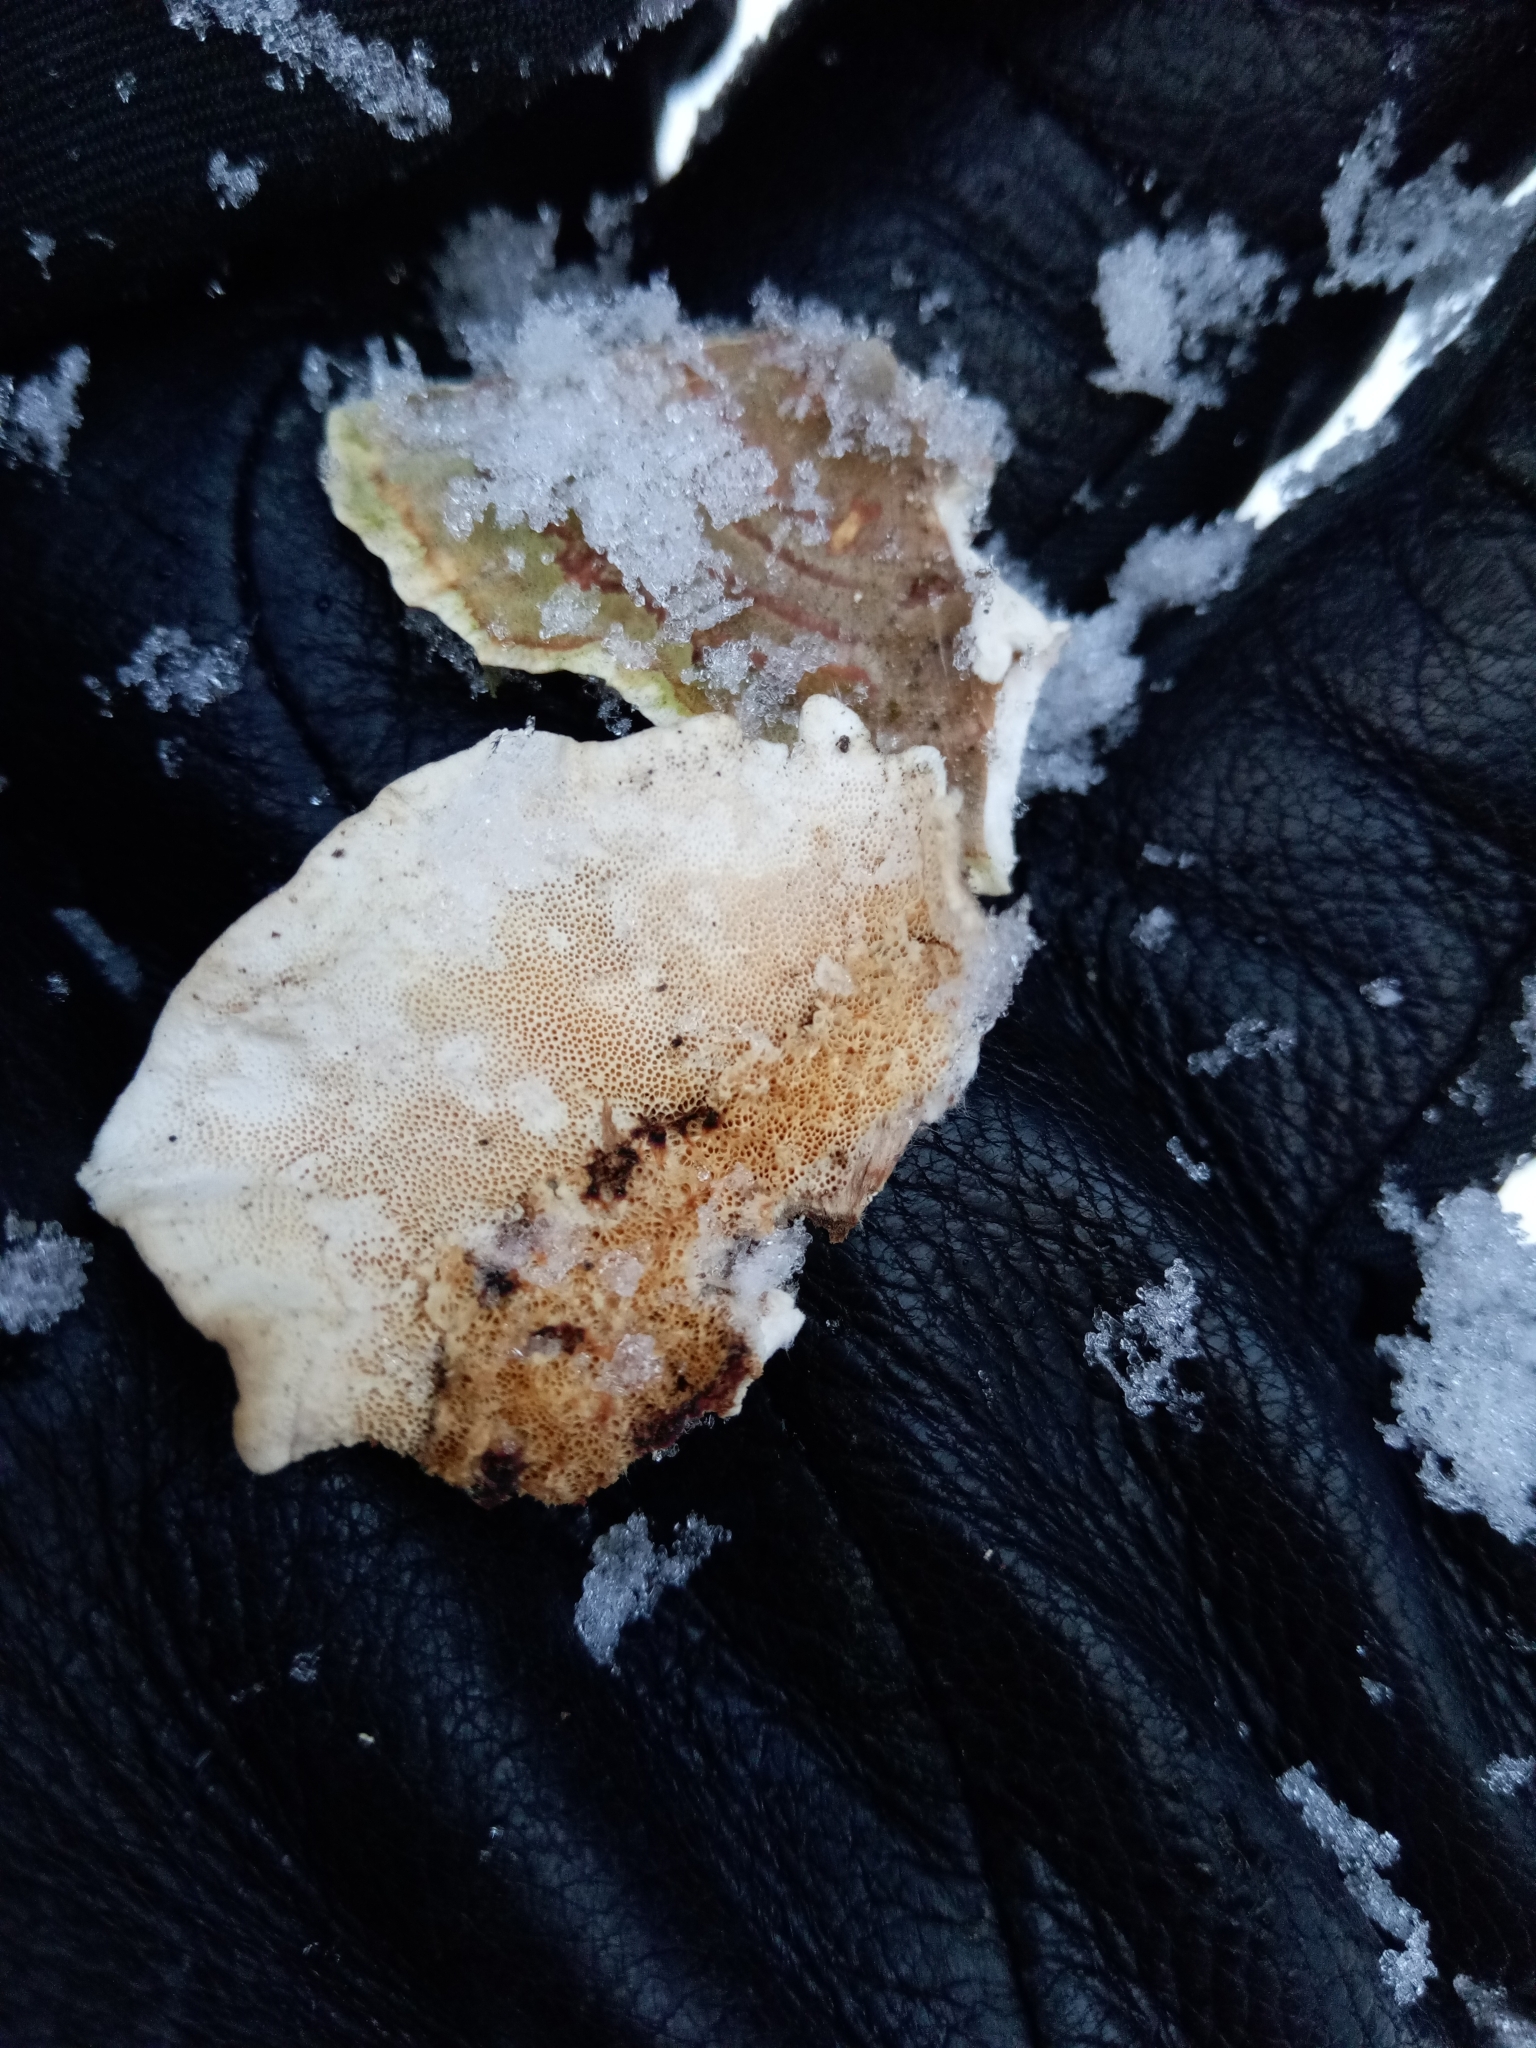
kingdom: Fungi
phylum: Basidiomycota
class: Agaricomycetes
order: Polyporales
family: Polyporaceae
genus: Trametes
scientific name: Trametes versicolor
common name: Turkeytail
